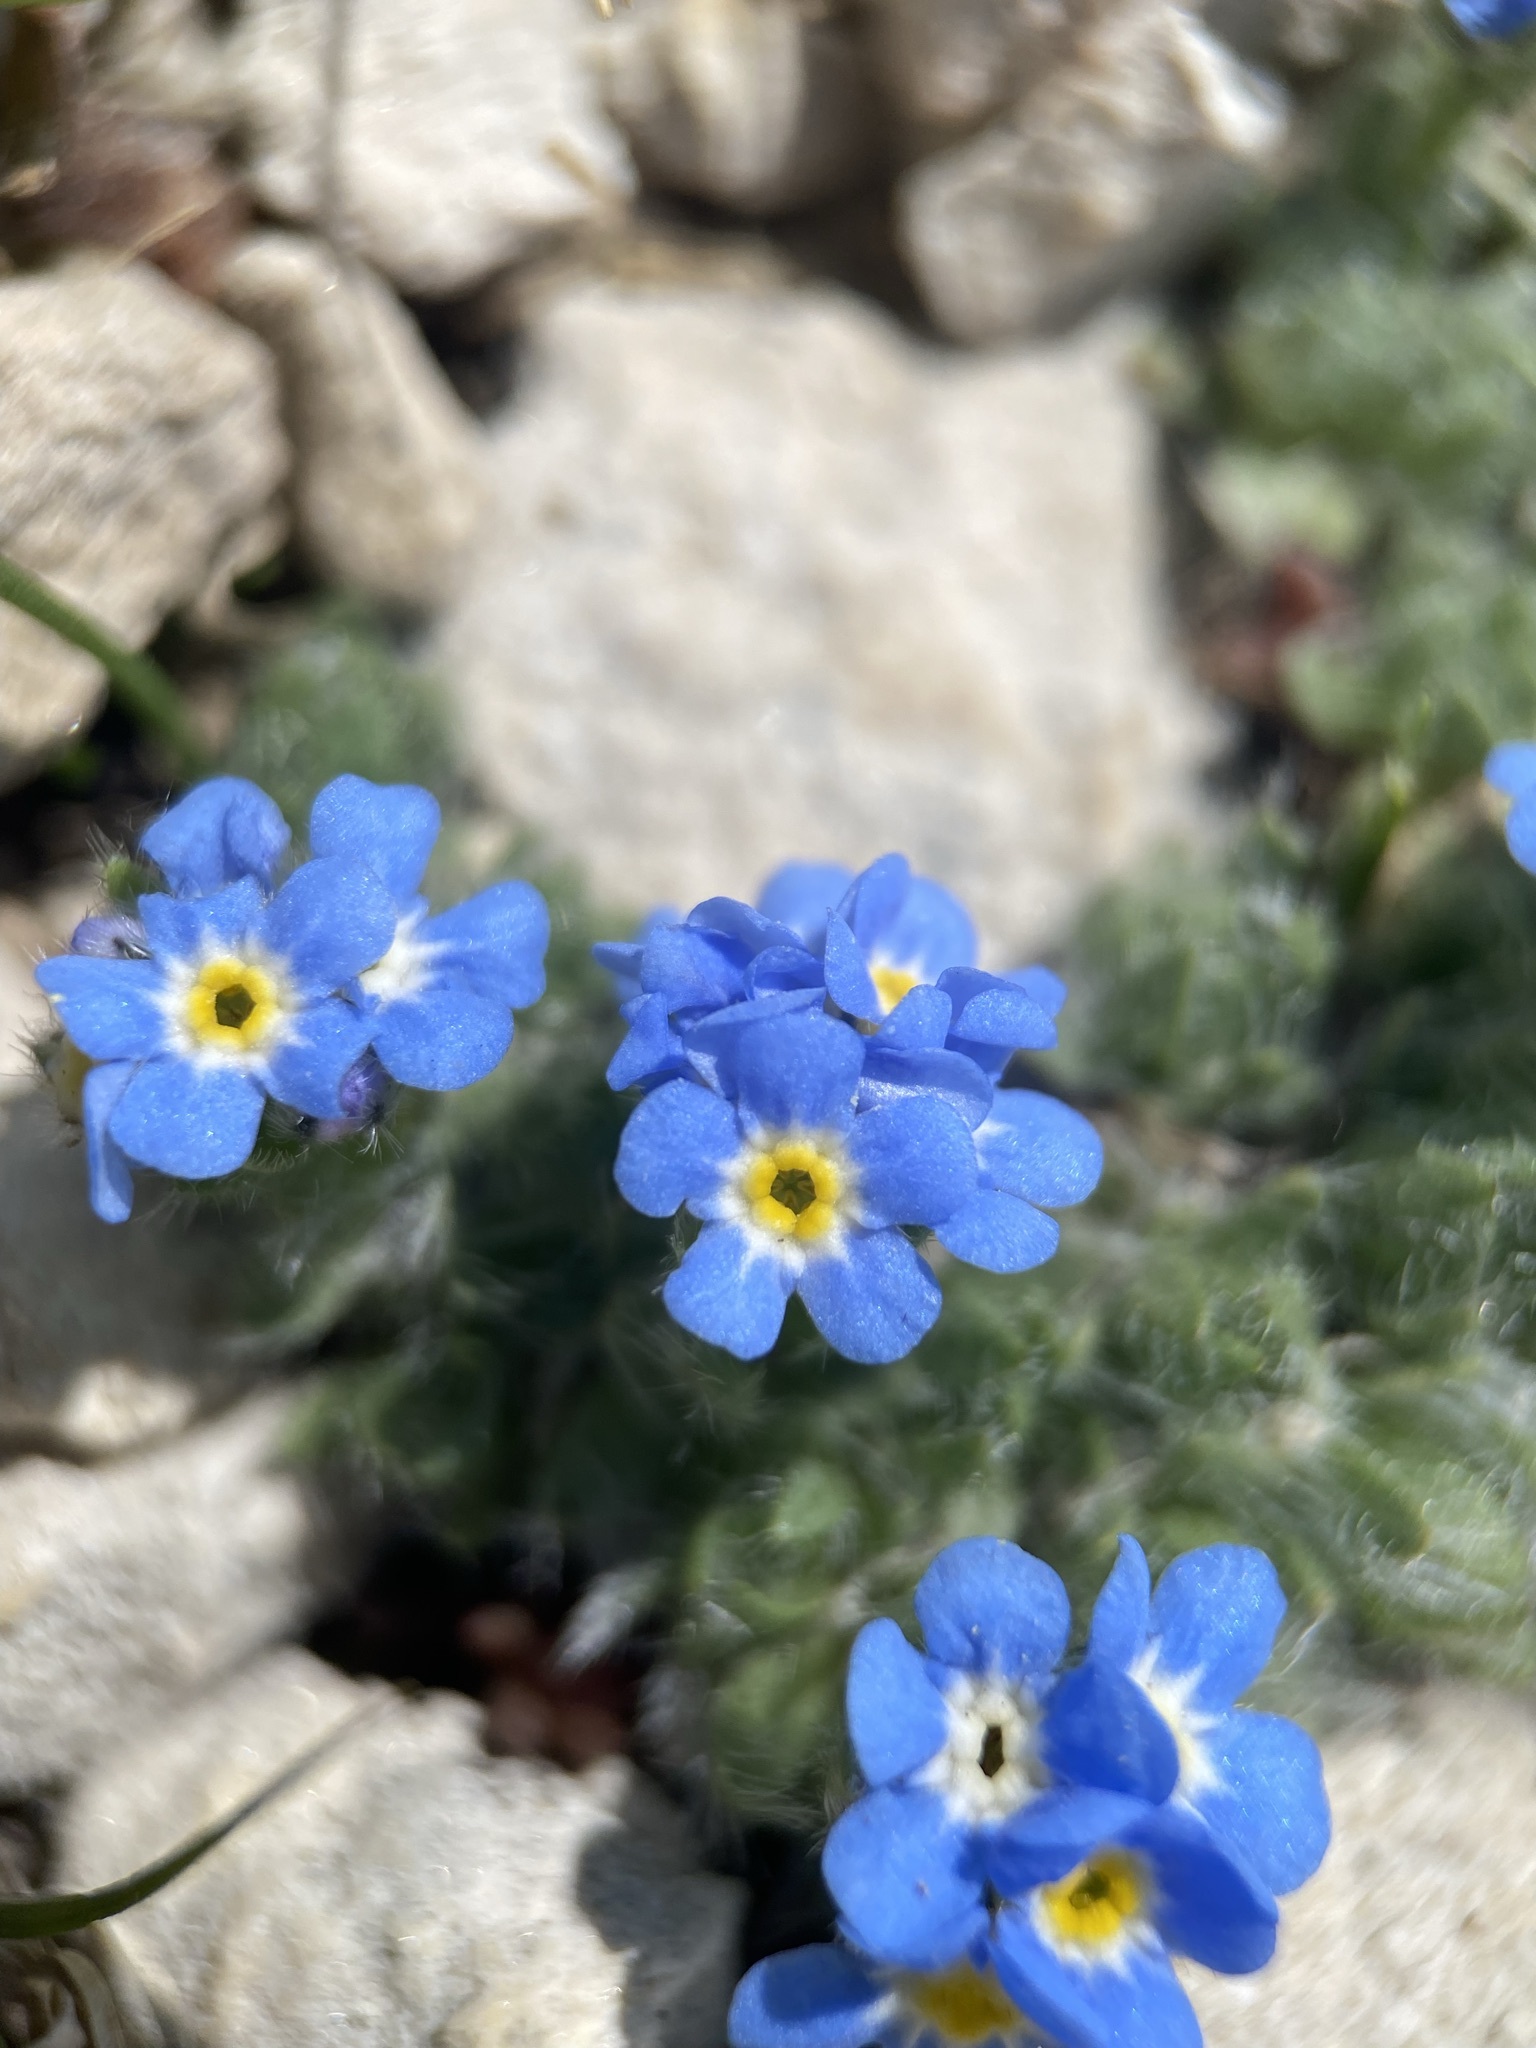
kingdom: Plantae
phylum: Tracheophyta
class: Magnoliopsida
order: Boraginales
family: Boraginaceae
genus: Eritrichium
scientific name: Eritrichium argenteum
